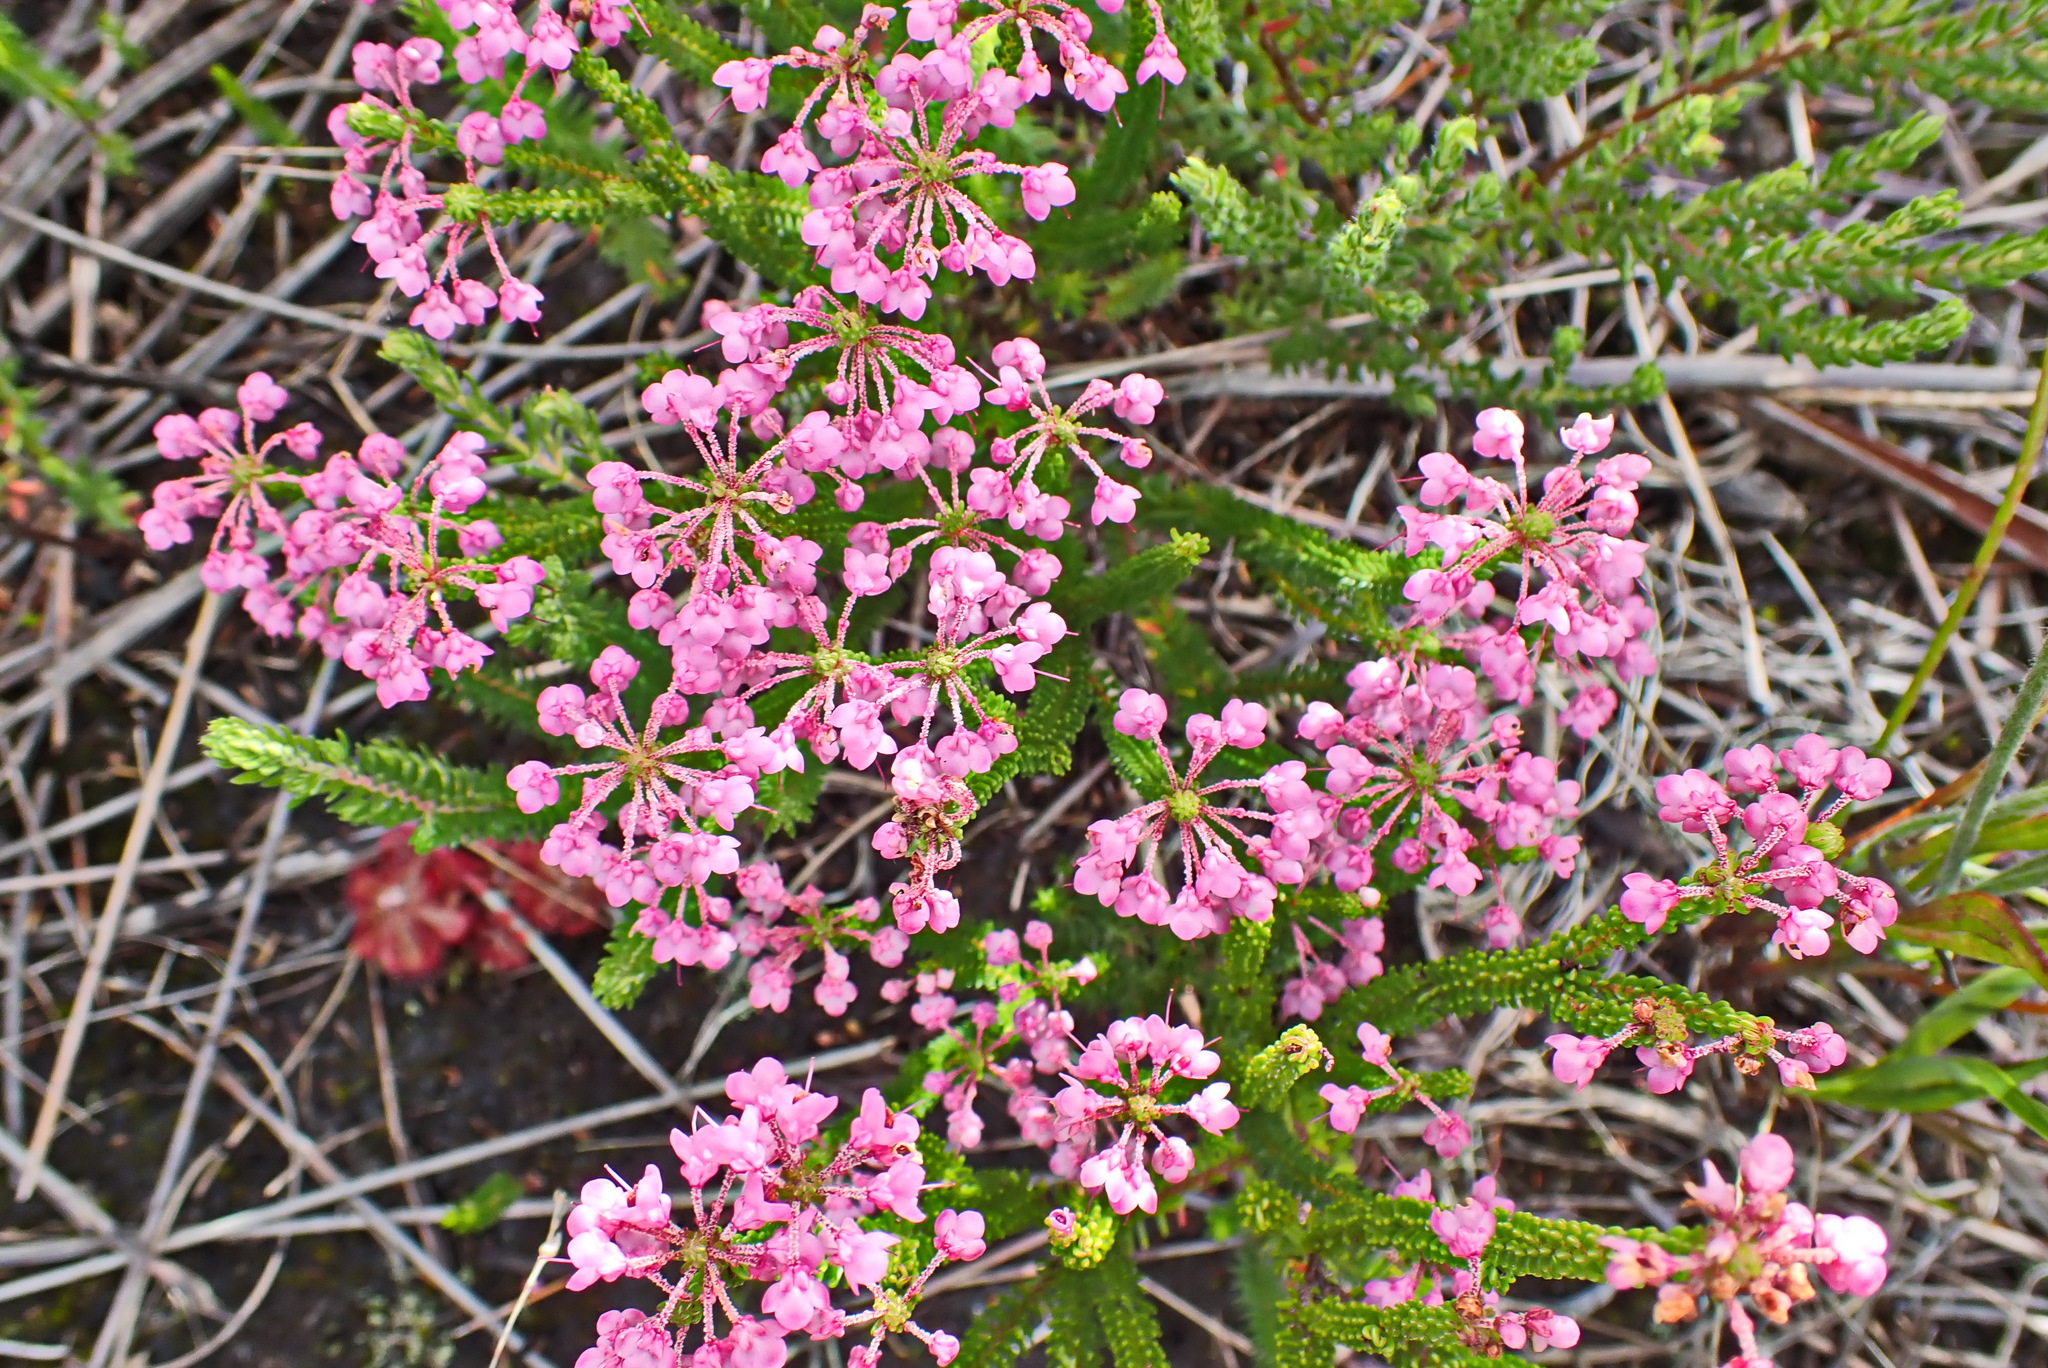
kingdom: Plantae
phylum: Tracheophyta
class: Magnoliopsida
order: Ericales
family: Ericaceae
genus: Erica
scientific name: Erica seriphiifolia
